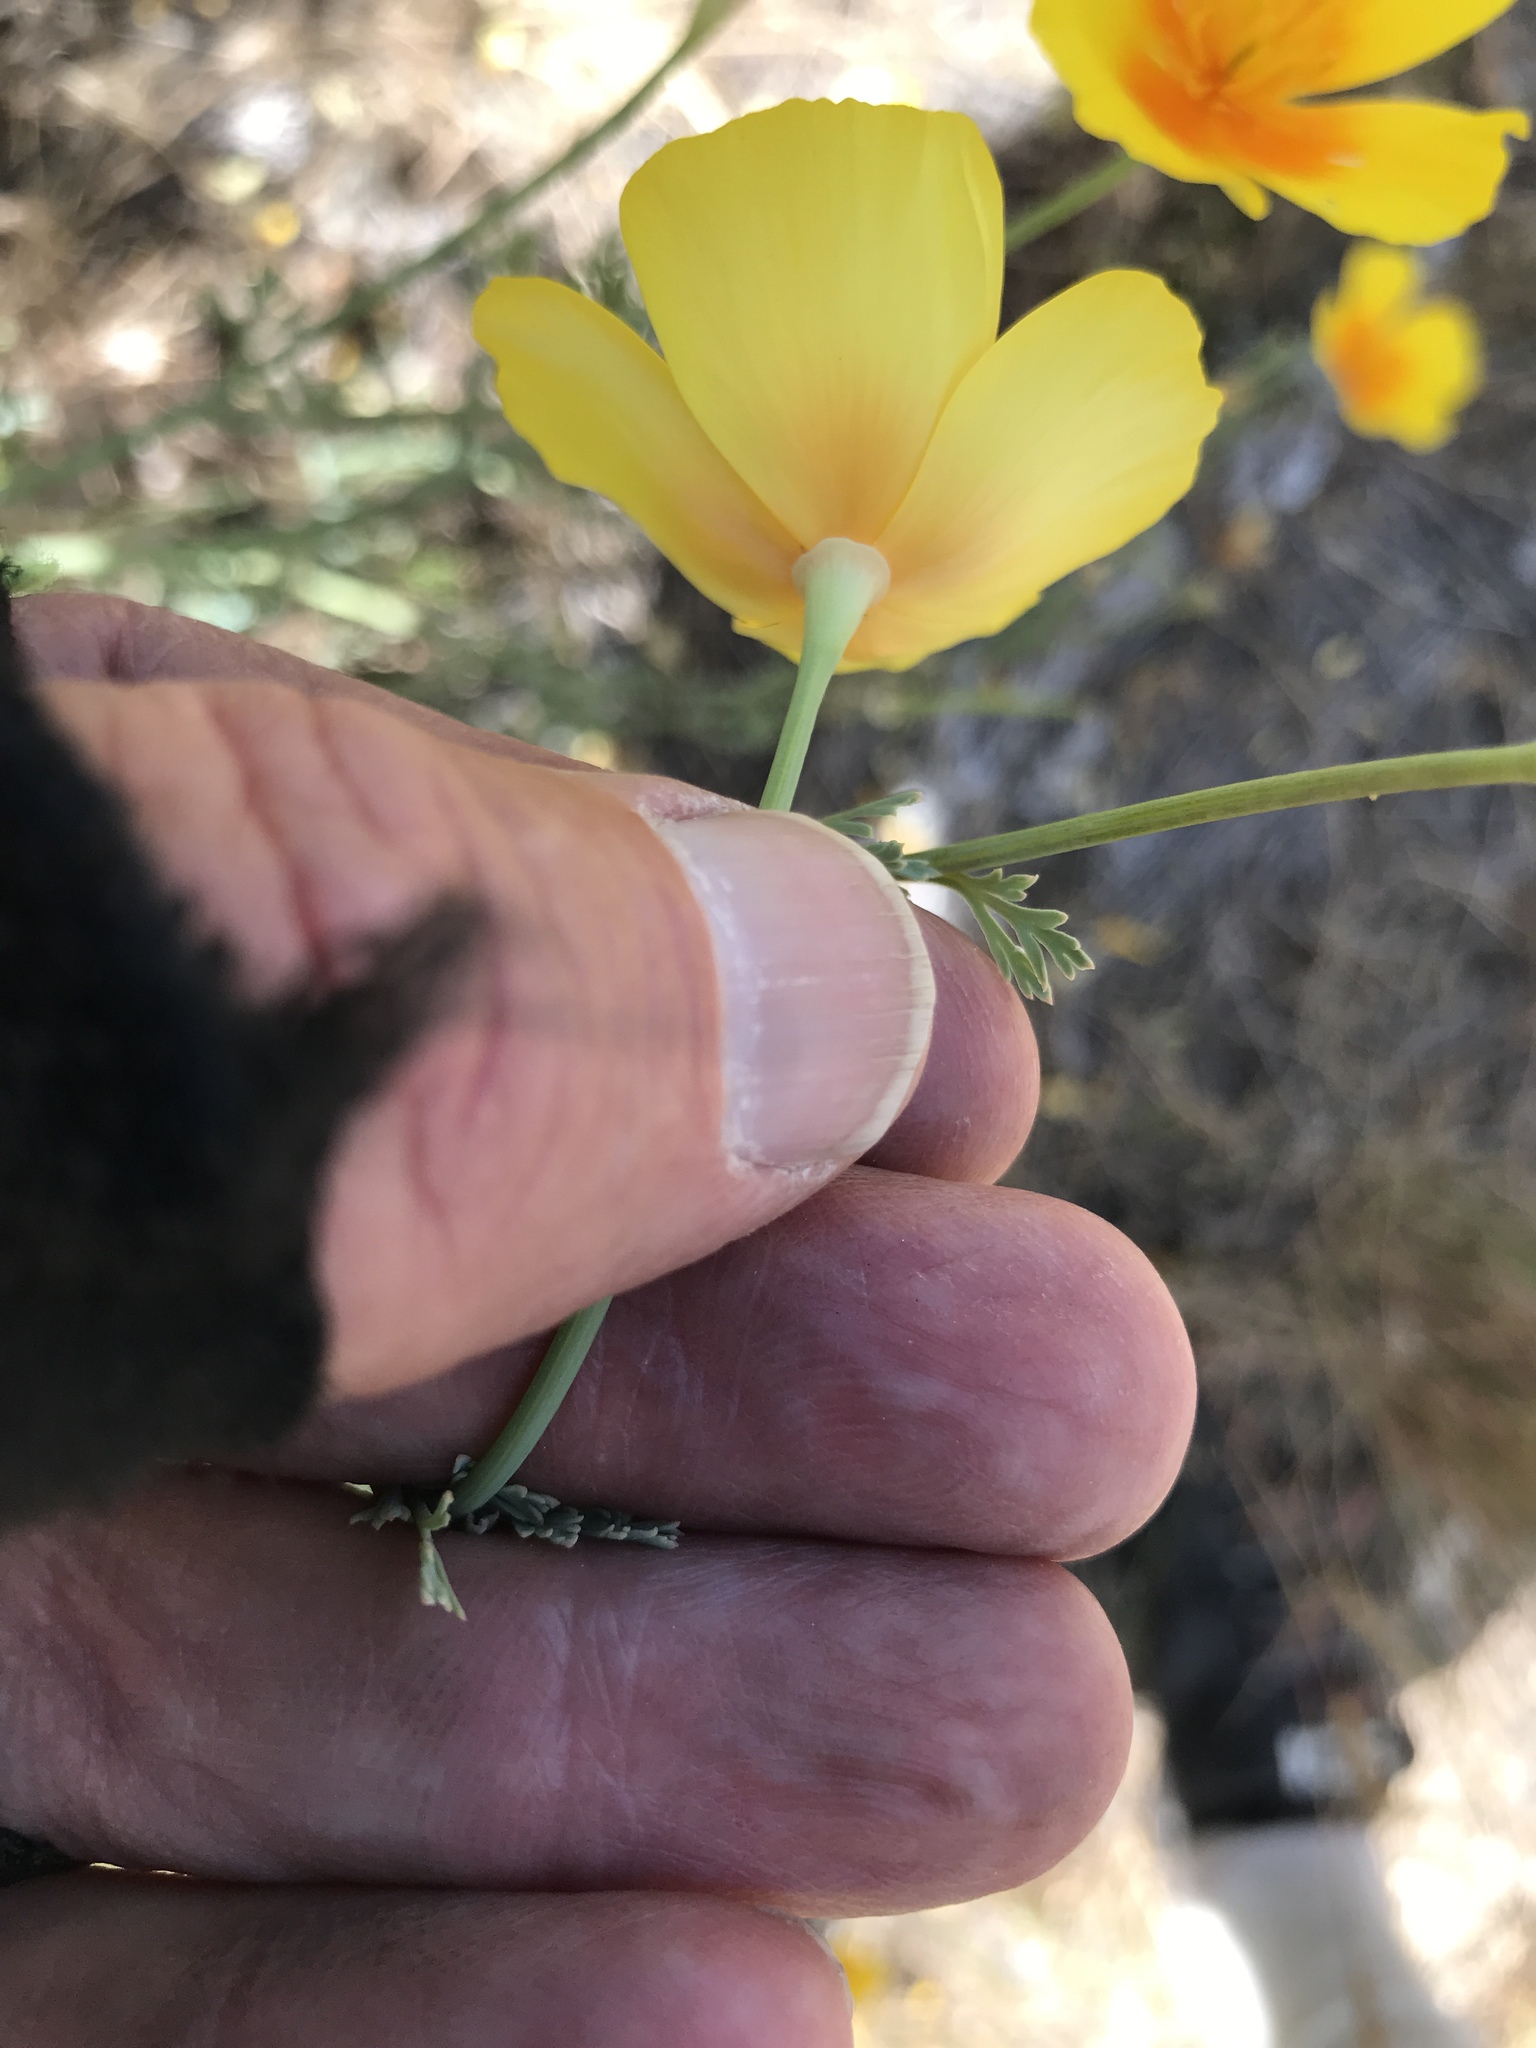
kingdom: Plantae
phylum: Tracheophyta
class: Magnoliopsida
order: Ranunculales
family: Papaveraceae
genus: Eschscholzia
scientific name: Eschscholzia californica
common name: California poppy
